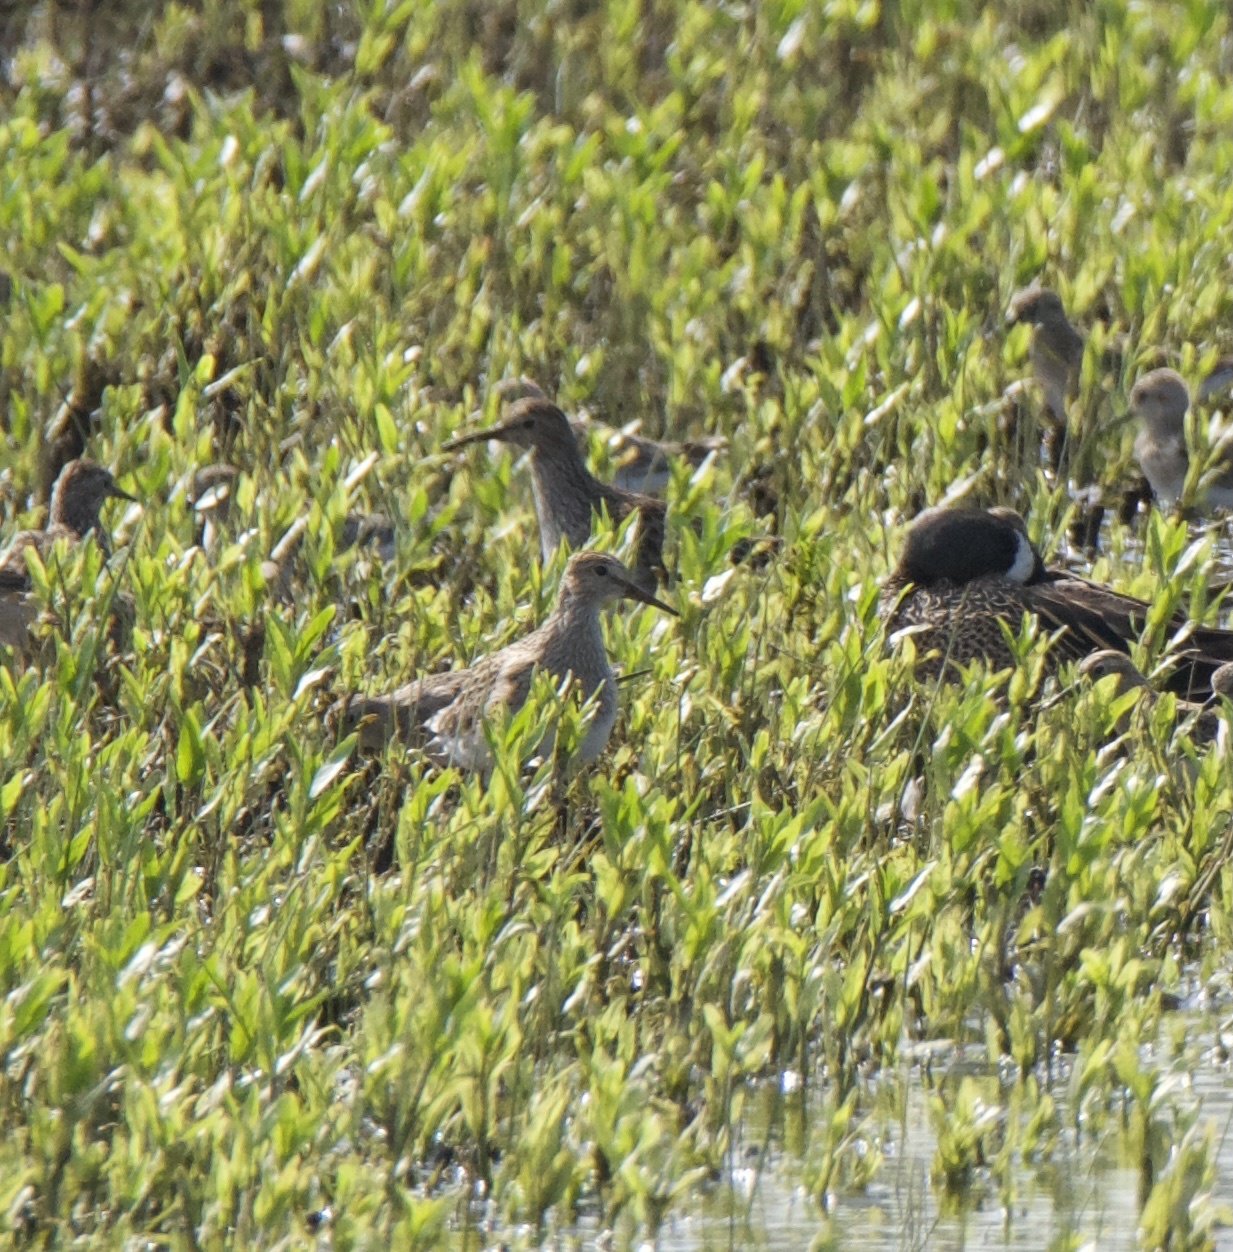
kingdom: Animalia
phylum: Chordata
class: Aves
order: Charadriiformes
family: Scolopacidae
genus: Calidris
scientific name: Calidris melanotos
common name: Pectoral sandpiper
